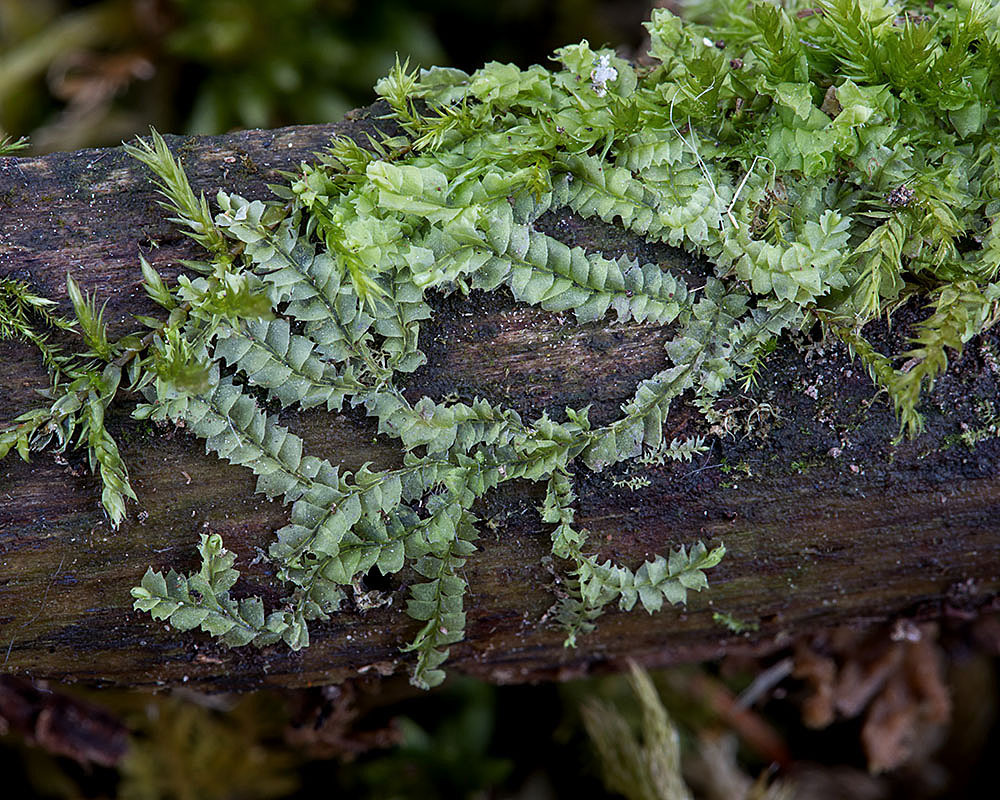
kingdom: Plantae
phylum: Marchantiophyta
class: Jungermanniopsida
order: Jungermanniales
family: Lophocoleaceae
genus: Lophocolea
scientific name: Lophocolea heterophylla
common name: Variable-leaved crestwort
